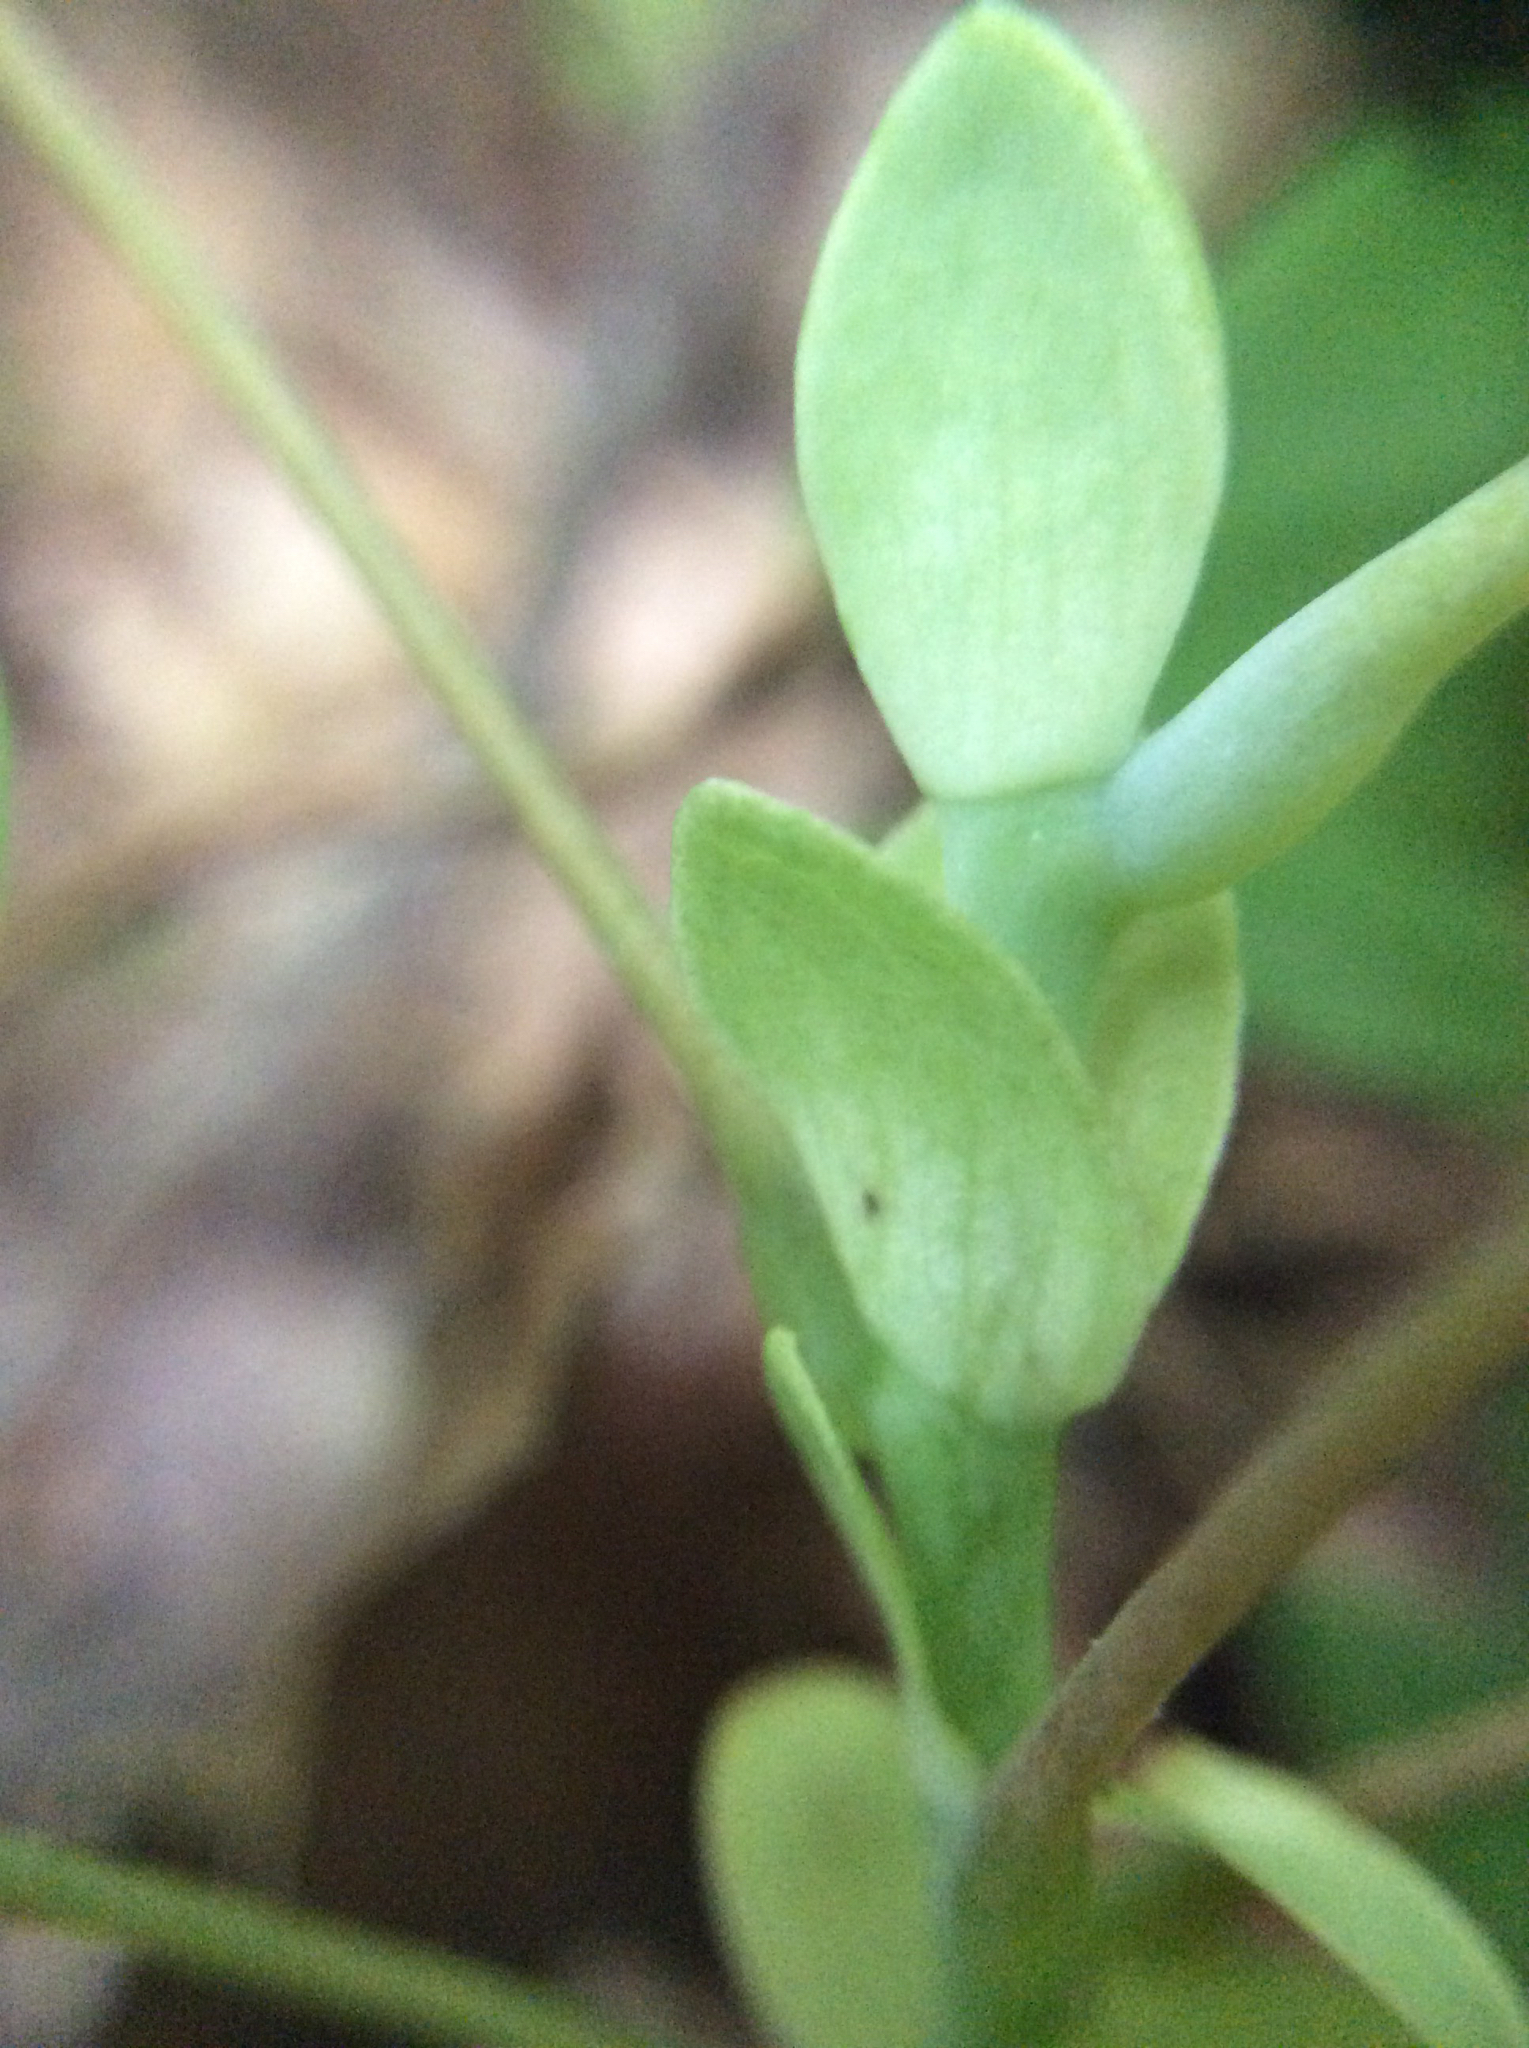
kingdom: Plantae
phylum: Tracheophyta
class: Magnoliopsida
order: Magnoliales
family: Magnoliaceae
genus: Liriodendron
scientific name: Liriodendron tulipifera
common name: Tulip tree
